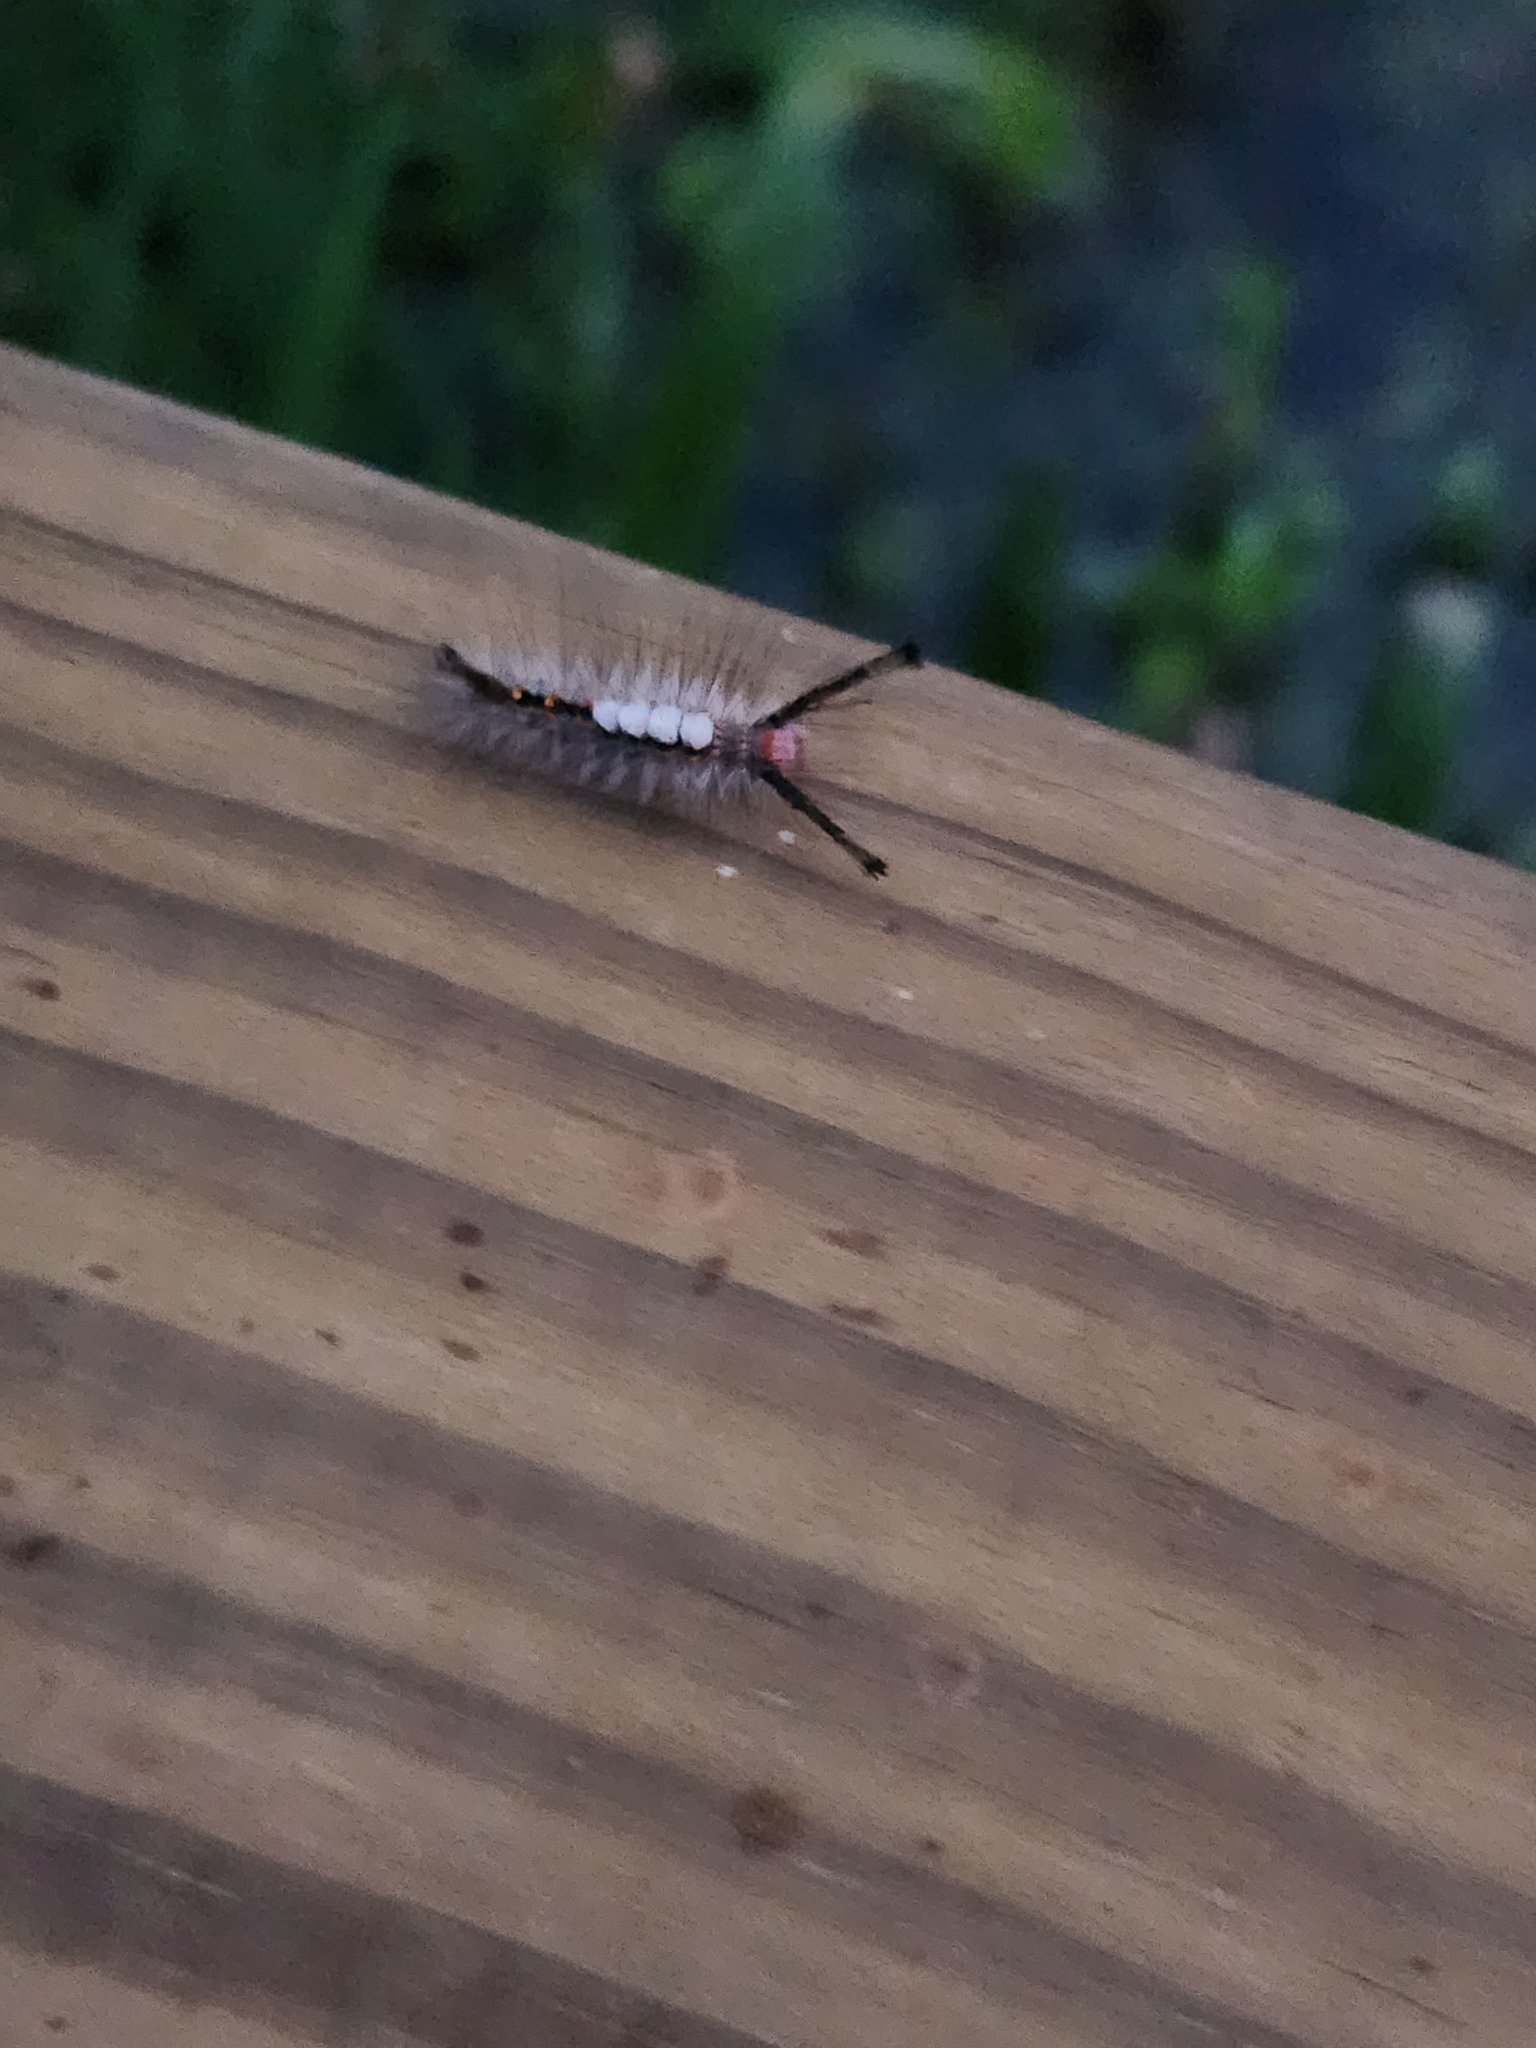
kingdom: Animalia
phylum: Arthropoda
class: Insecta
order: Lepidoptera
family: Erebidae
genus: Orgyia
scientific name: Orgyia detrita
